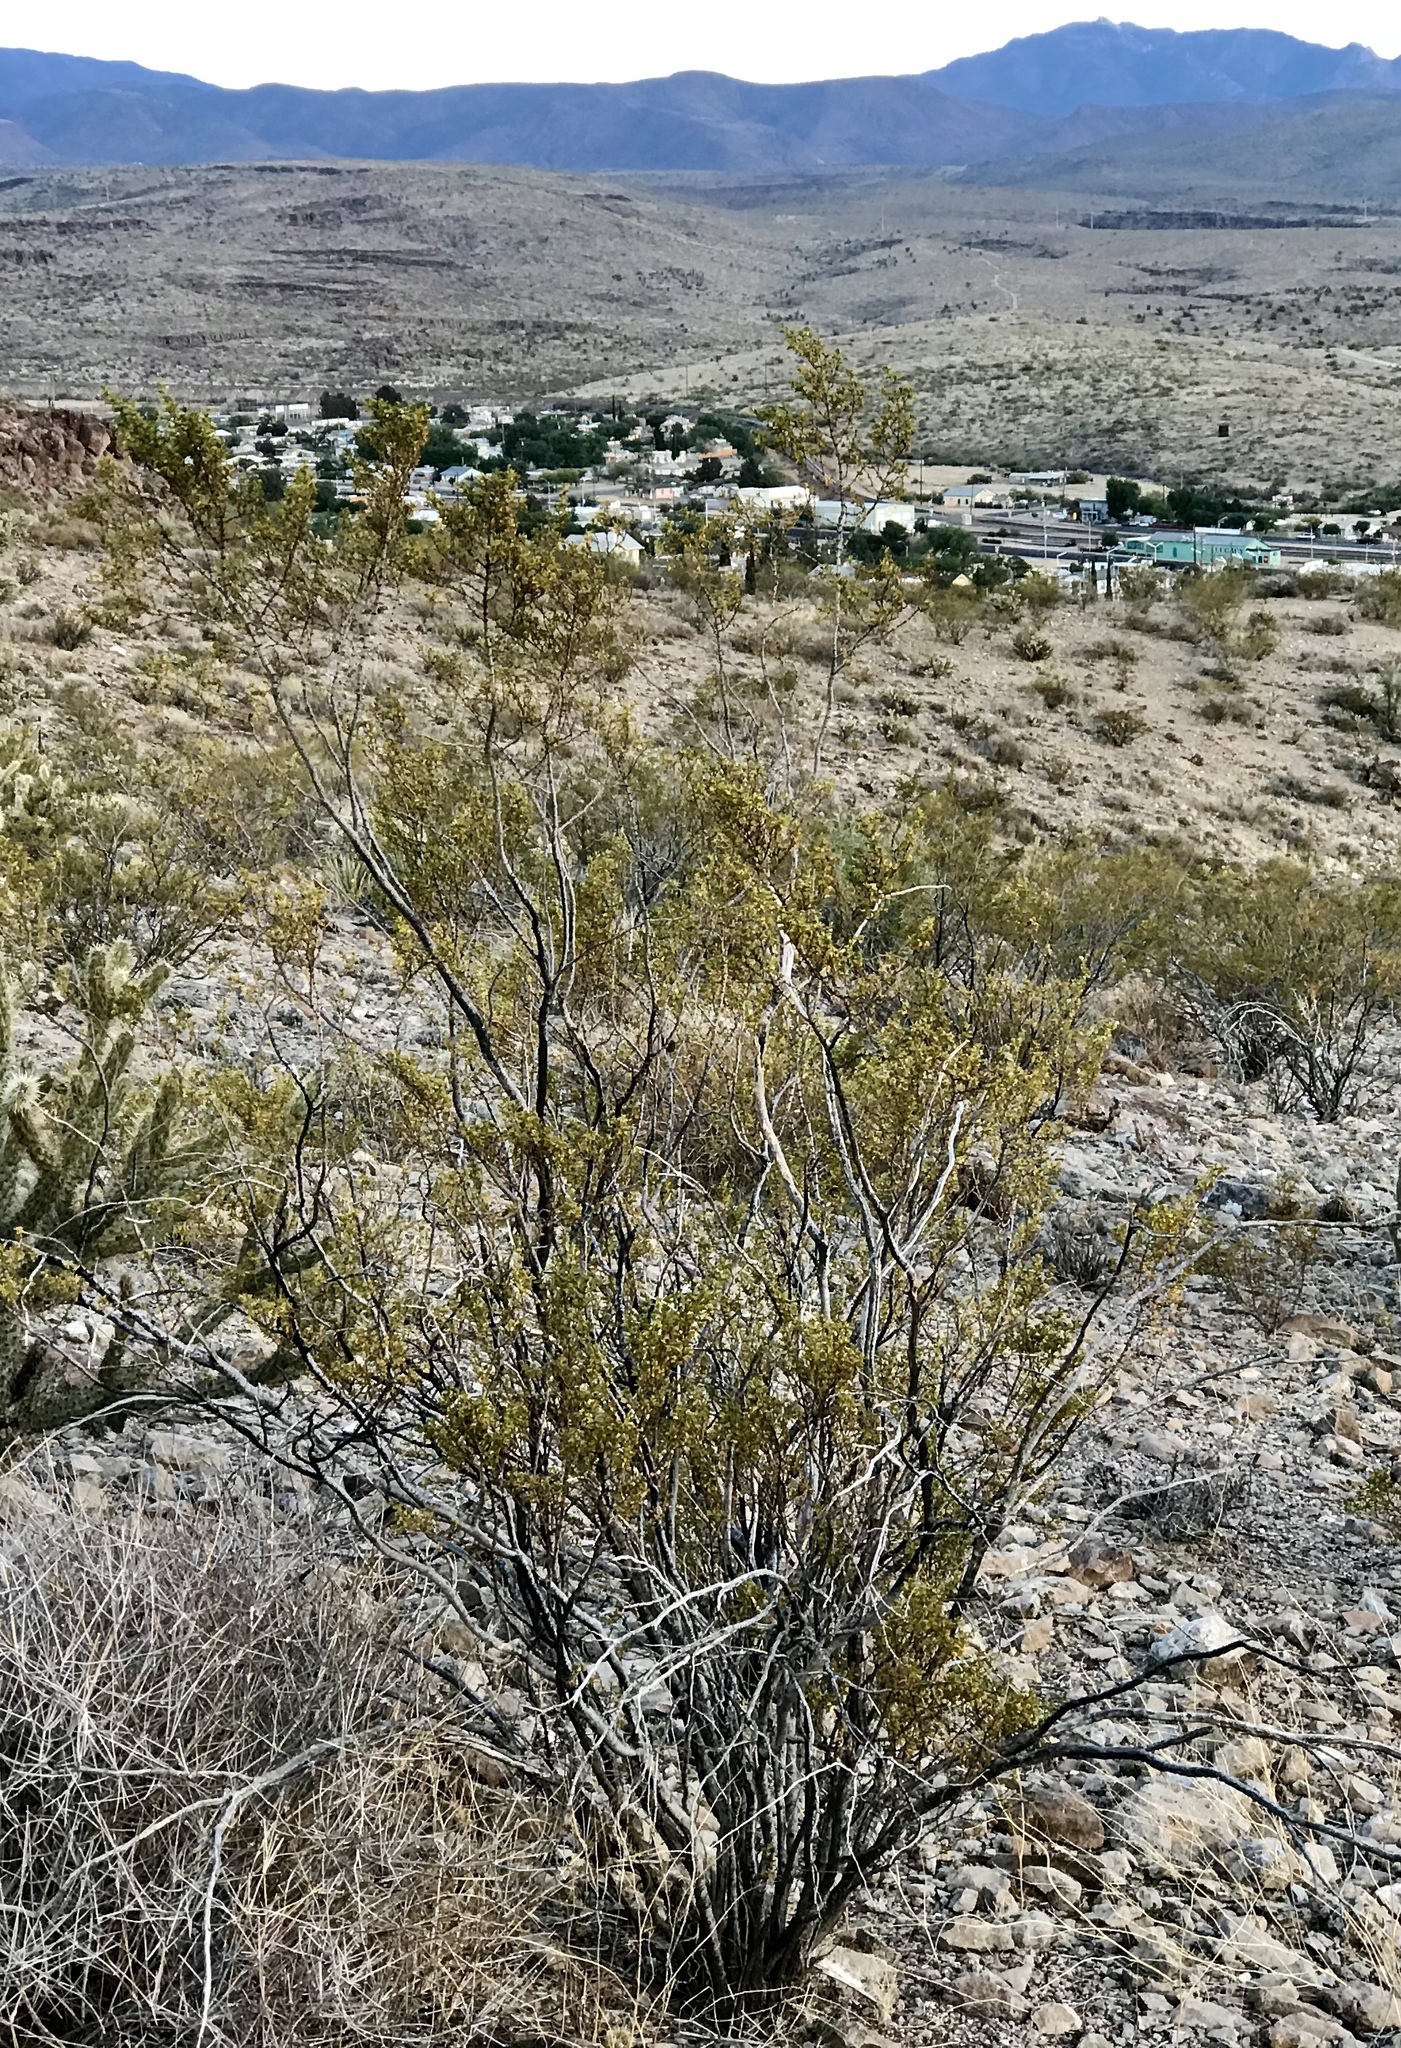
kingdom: Plantae
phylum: Tracheophyta
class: Magnoliopsida
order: Zygophyllales
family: Zygophyllaceae
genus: Larrea
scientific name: Larrea tridentata
